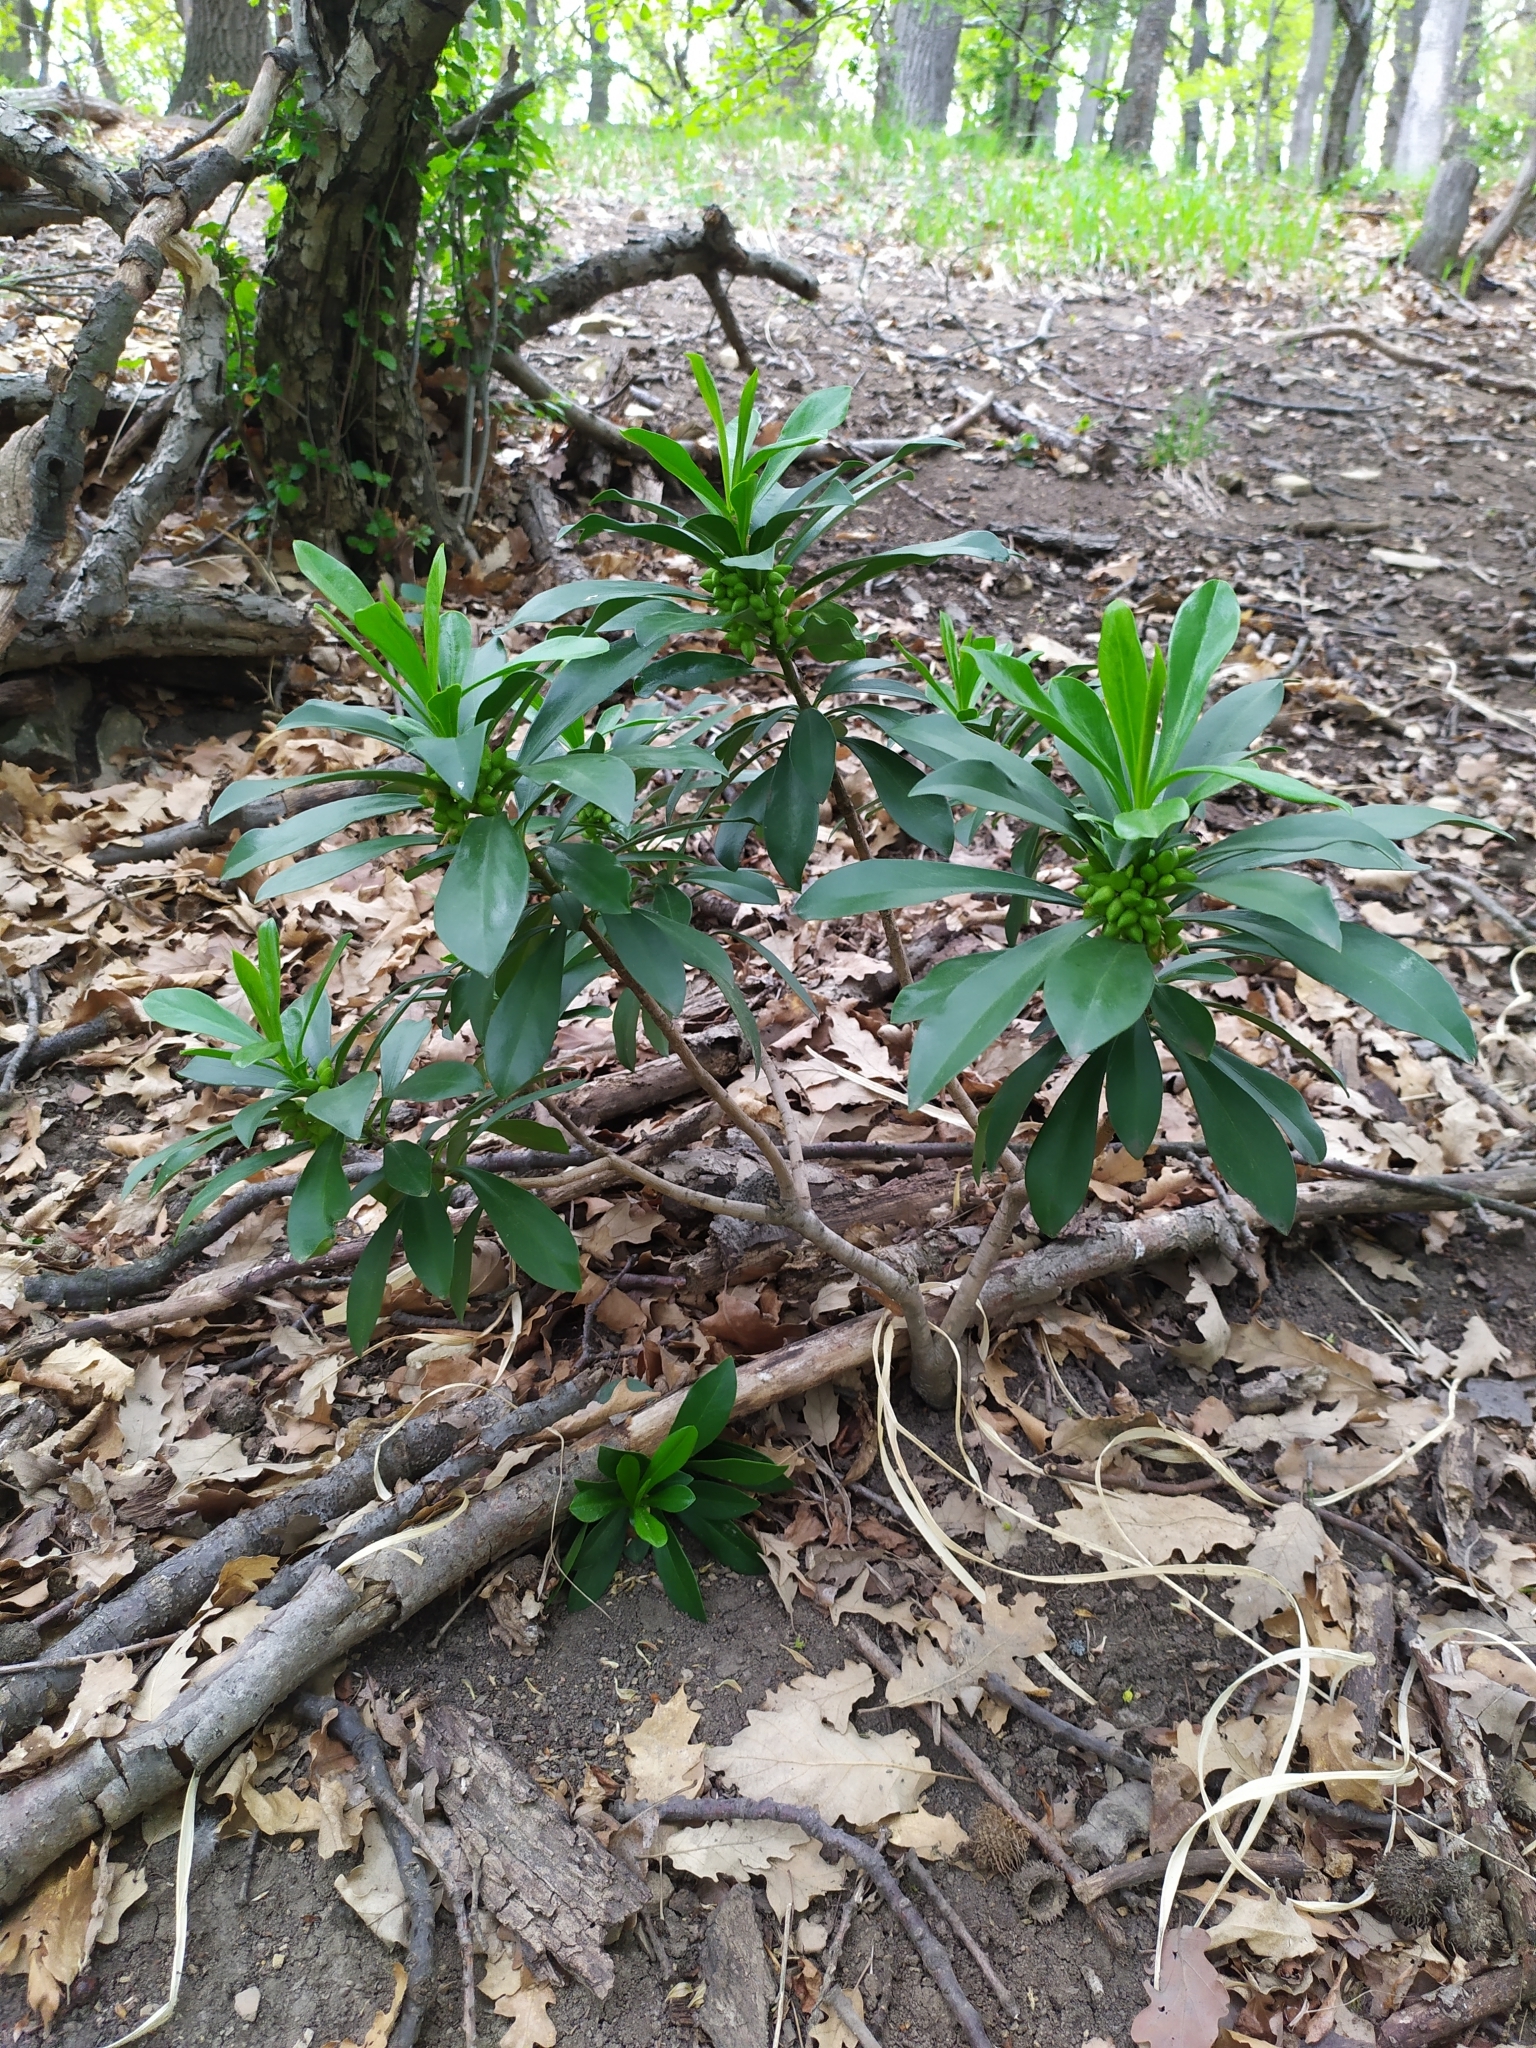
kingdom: Plantae
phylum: Tracheophyta
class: Magnoliopsida
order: Malvales
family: Thymelaeaceae
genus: Daphne
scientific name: Daphne laureola
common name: Spurge-laurel
